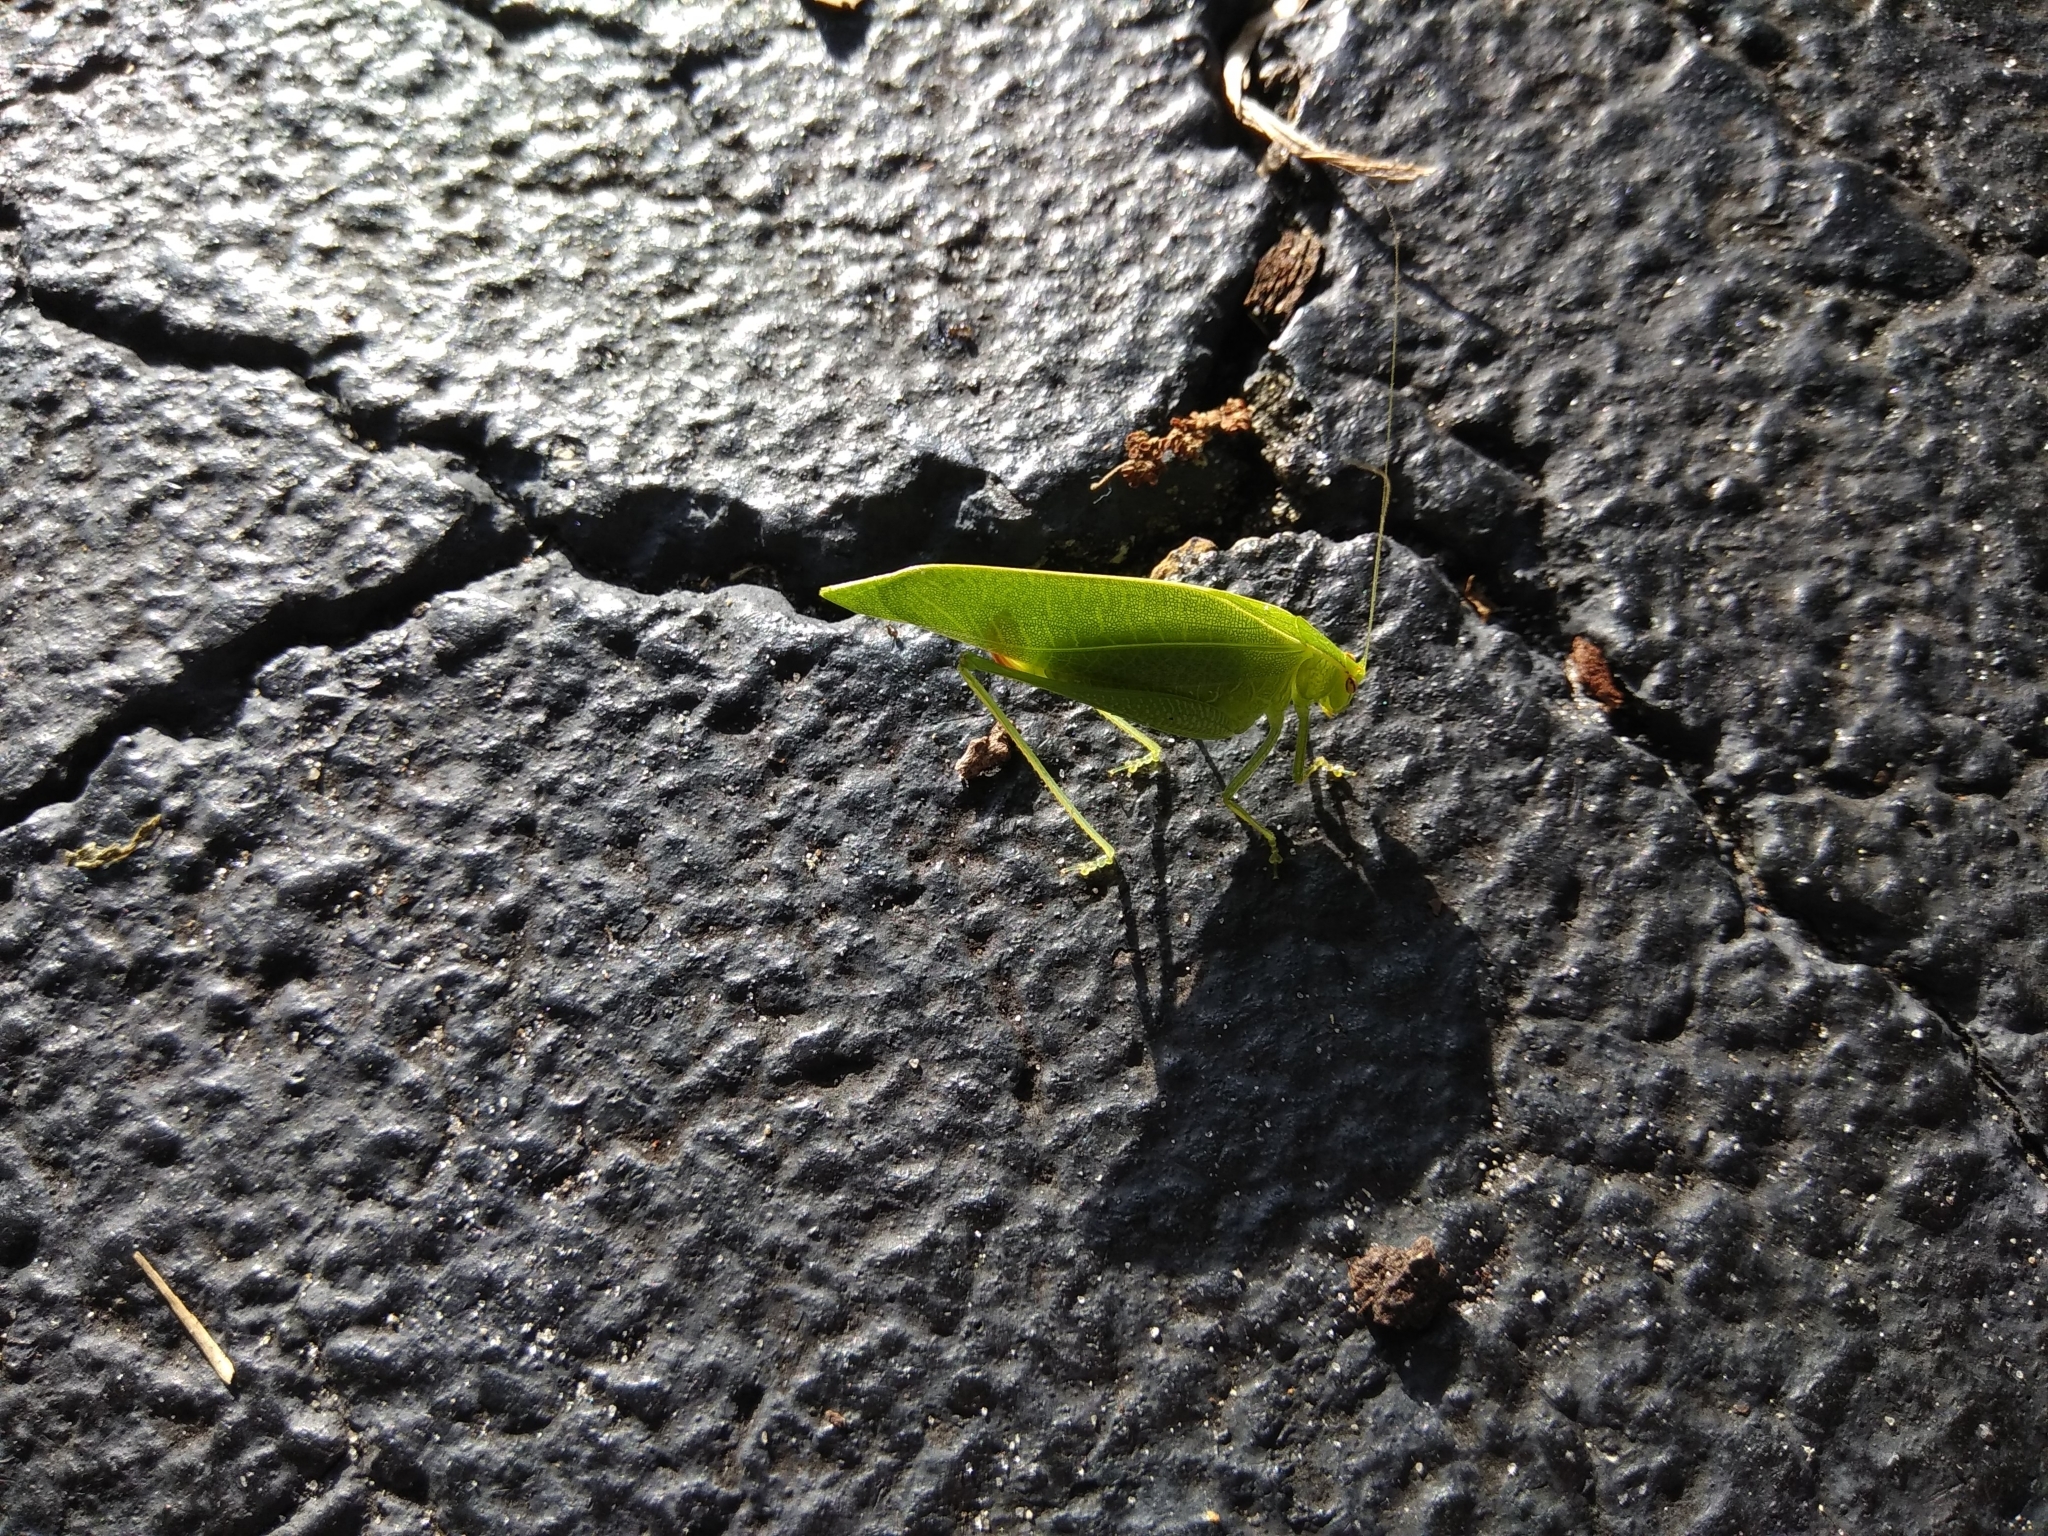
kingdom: Animalia
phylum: Arthropoda
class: Insecta
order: Orthoptera
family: Tettigoniidae
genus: Montezumina
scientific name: Montezumina modesta
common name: Modest katydid
